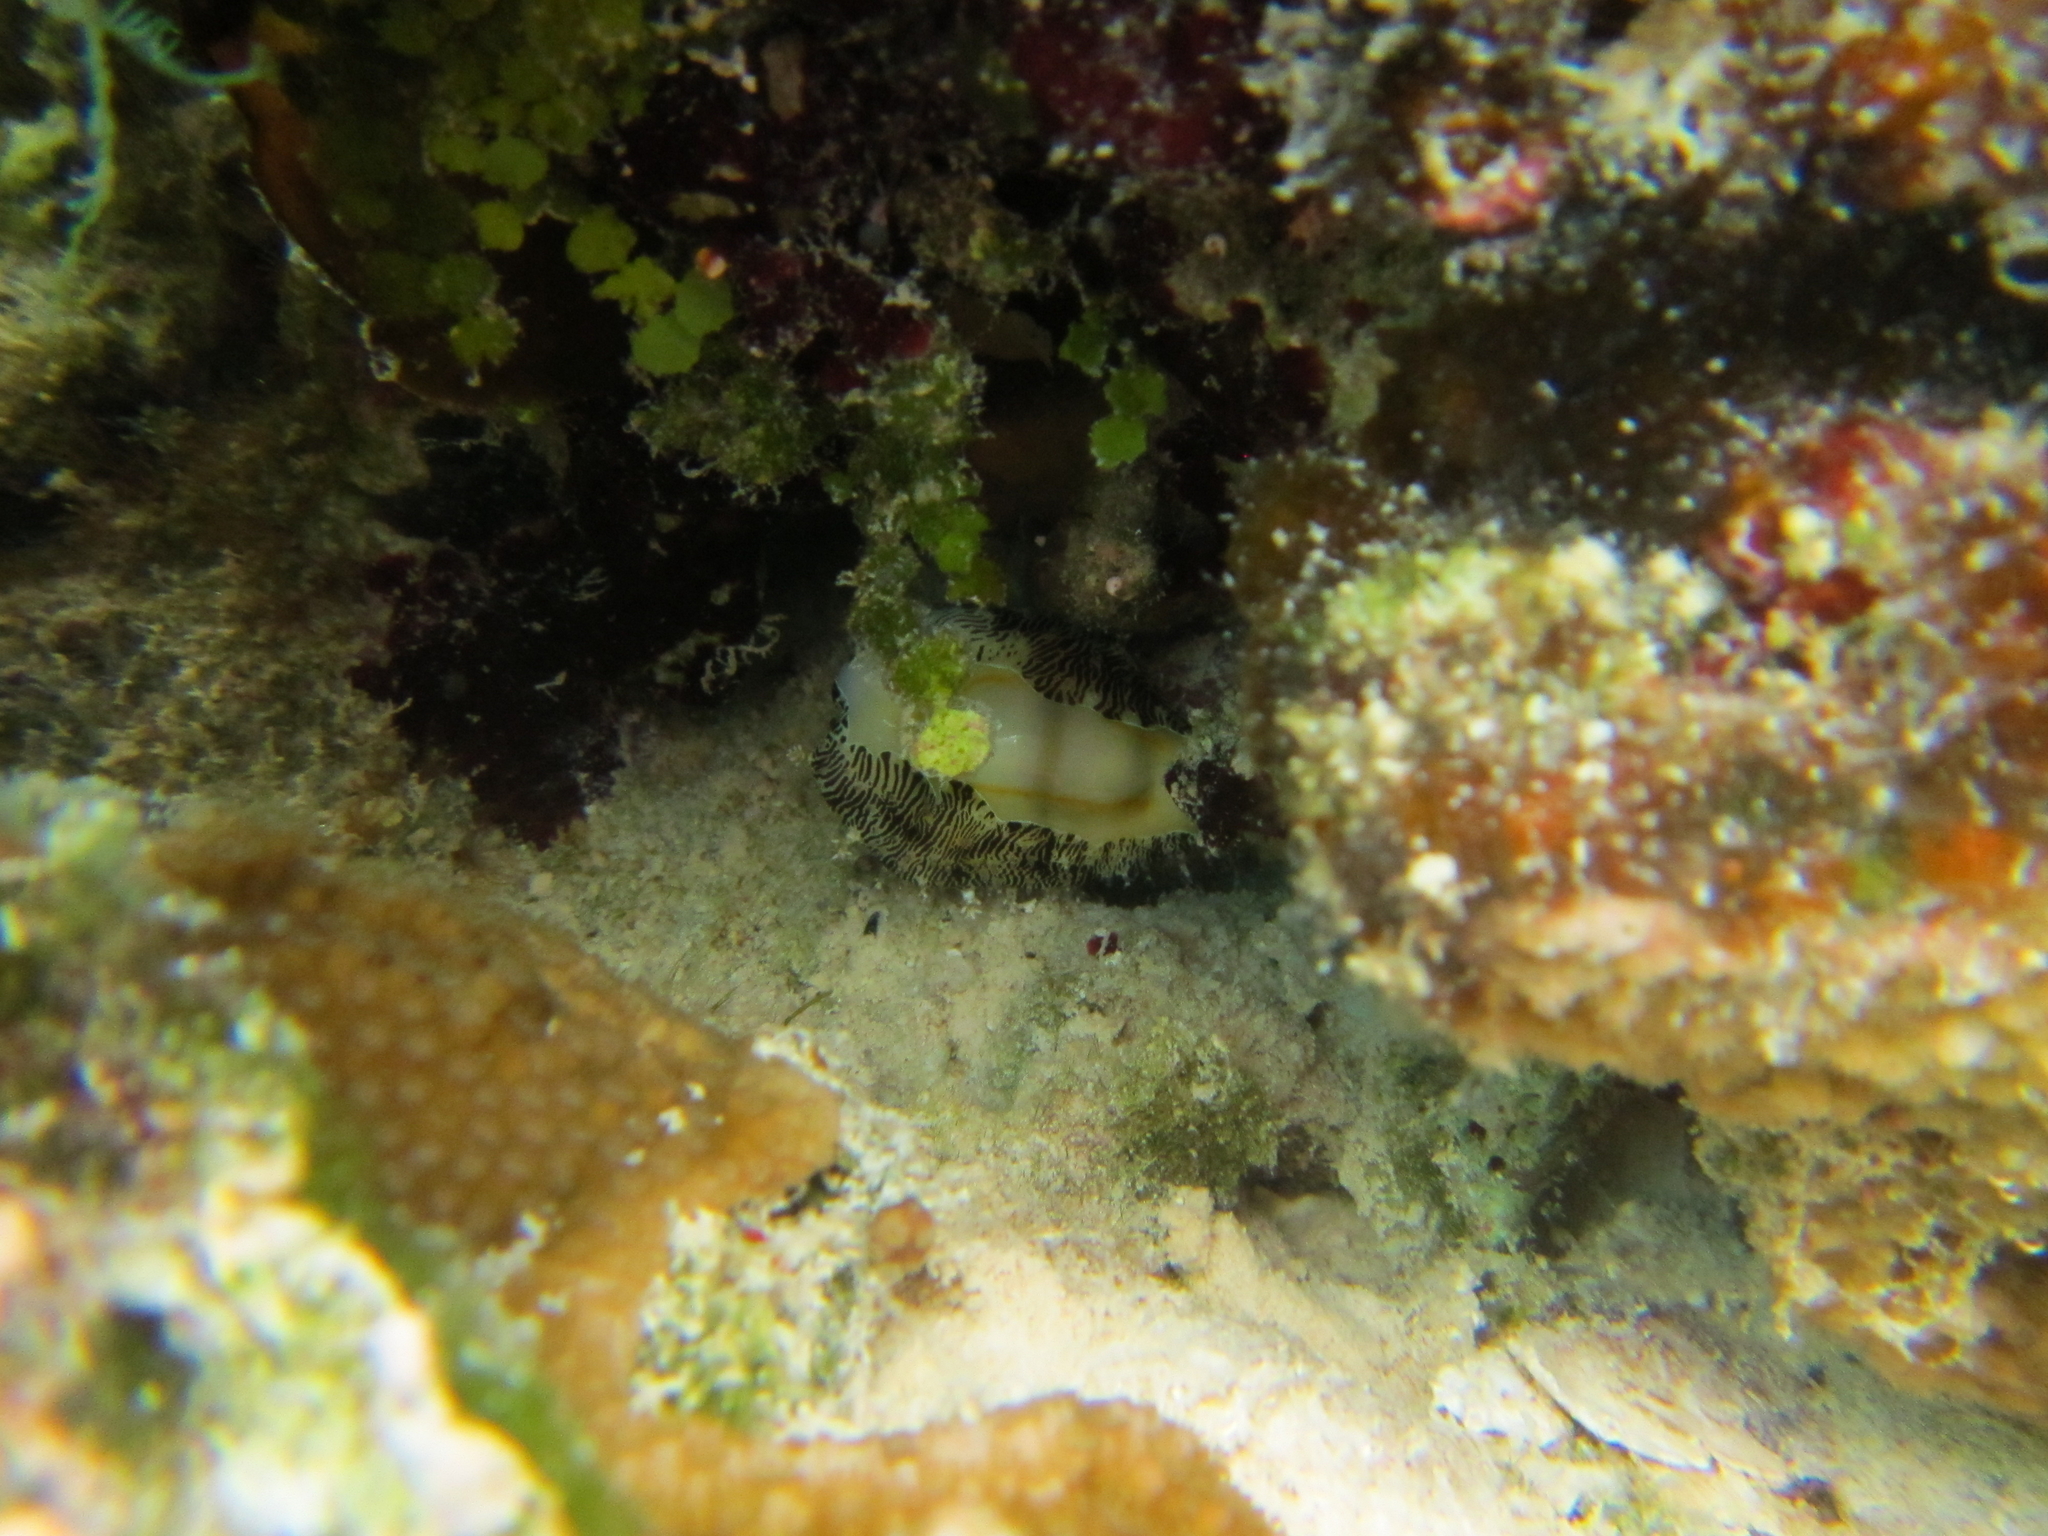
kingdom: Animalia
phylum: Mollusca
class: Gastropoda
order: Littorinimorpha
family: Cypraeidae
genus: Monetaria
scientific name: Monetaria moneta
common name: Money cowrie
